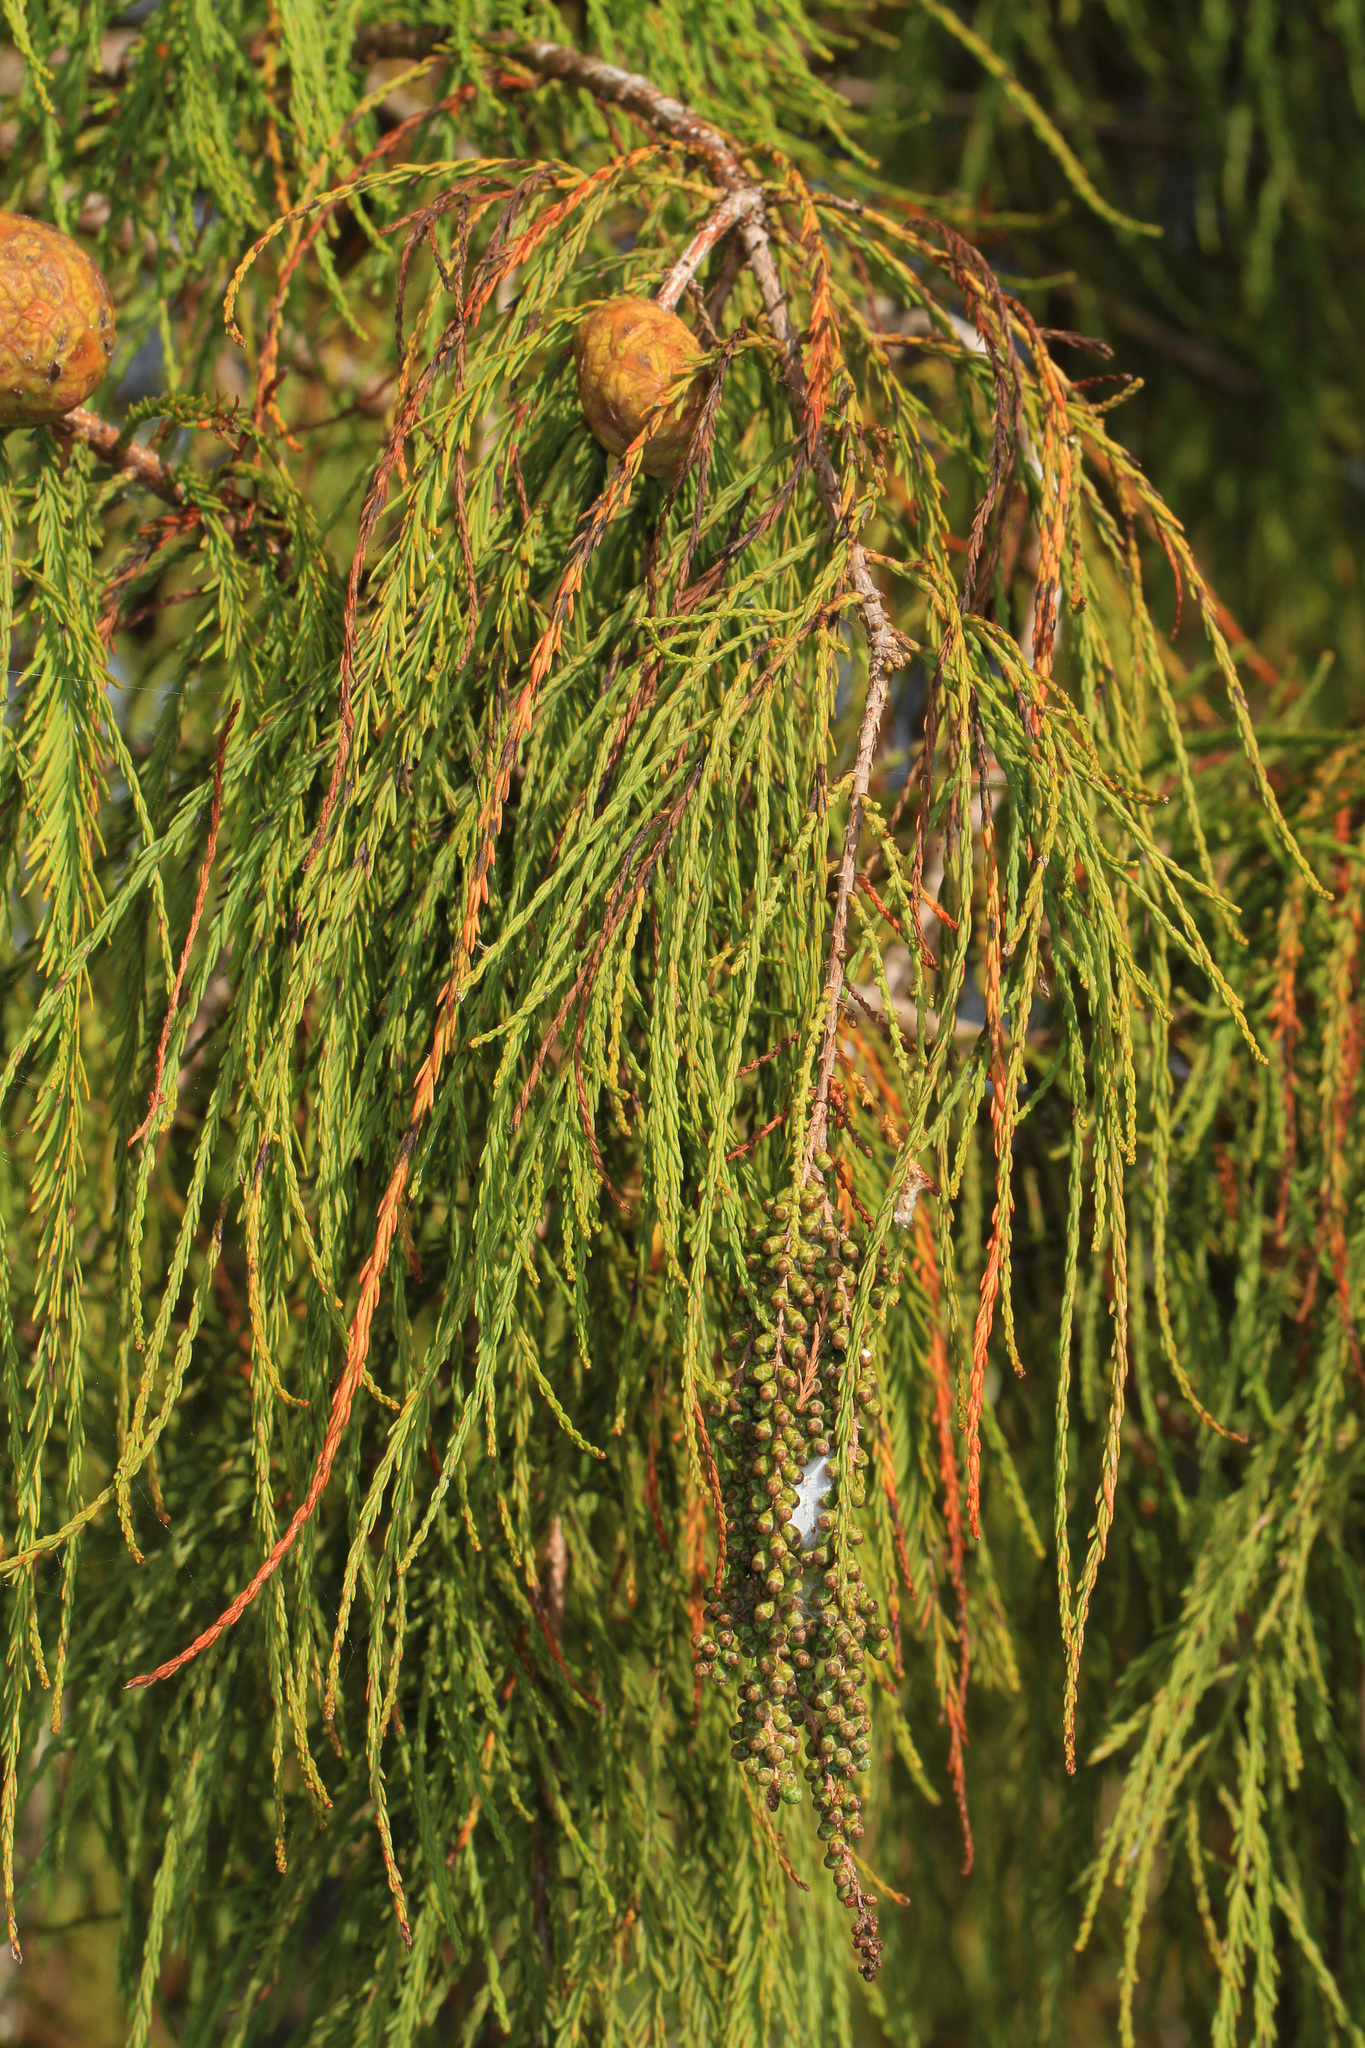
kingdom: Plantae
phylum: Tracheophyta
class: Pinopsida
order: Pinales
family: Cupressaceae
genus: Taxodium
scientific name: Taxodium distichum
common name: Bald cypress
